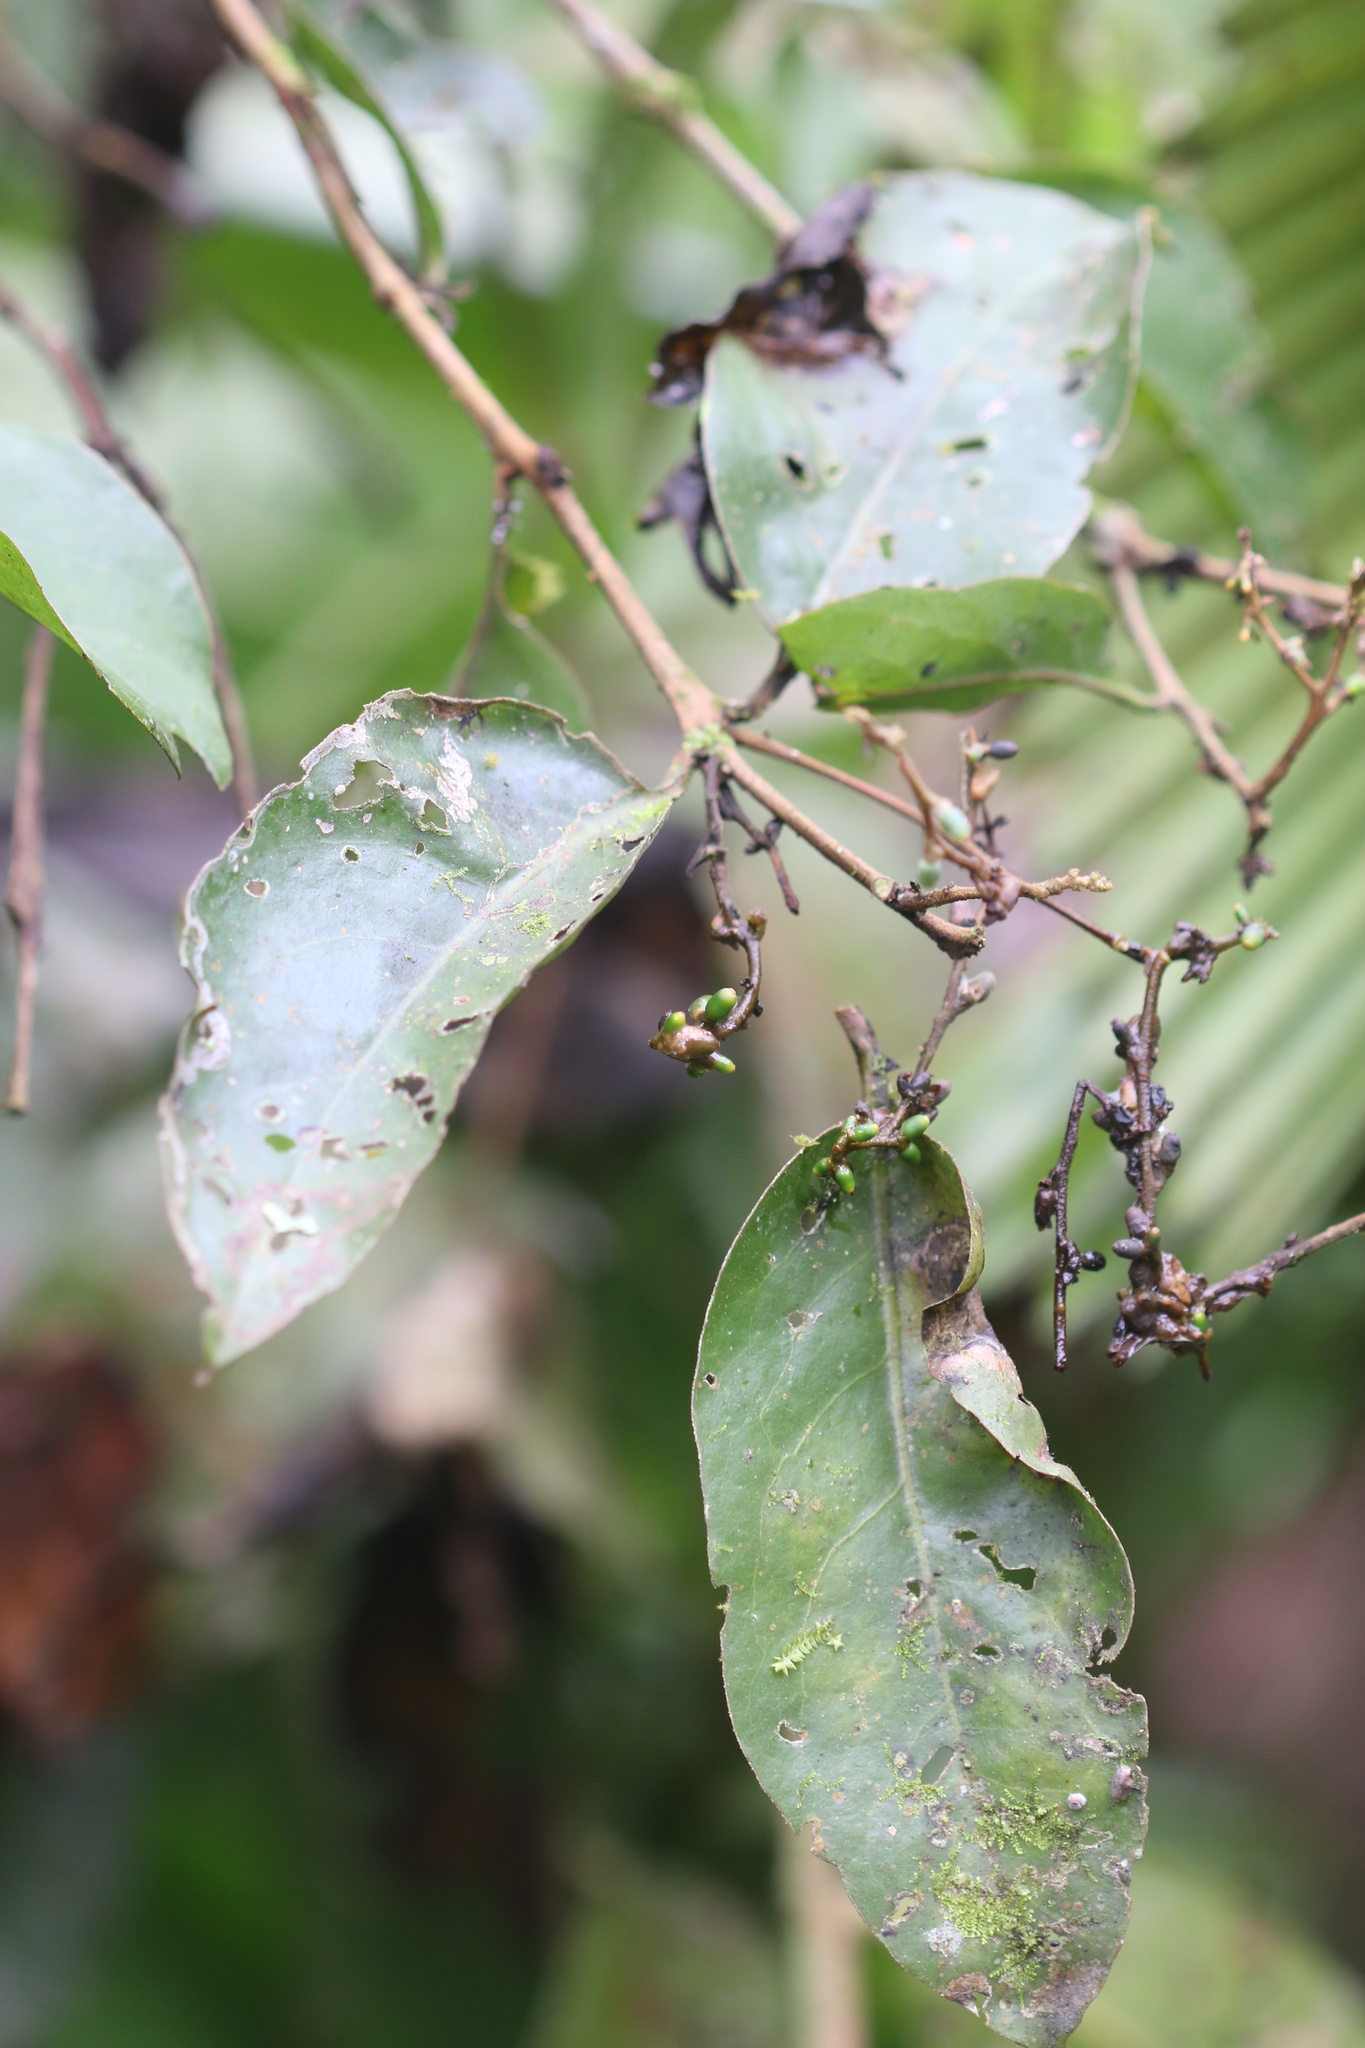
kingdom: Plantae
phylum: Tracheophyta
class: Magnoliopsida
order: Santalales
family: Loranthaceae
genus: Peristethium
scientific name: Peristethium polystachyum
